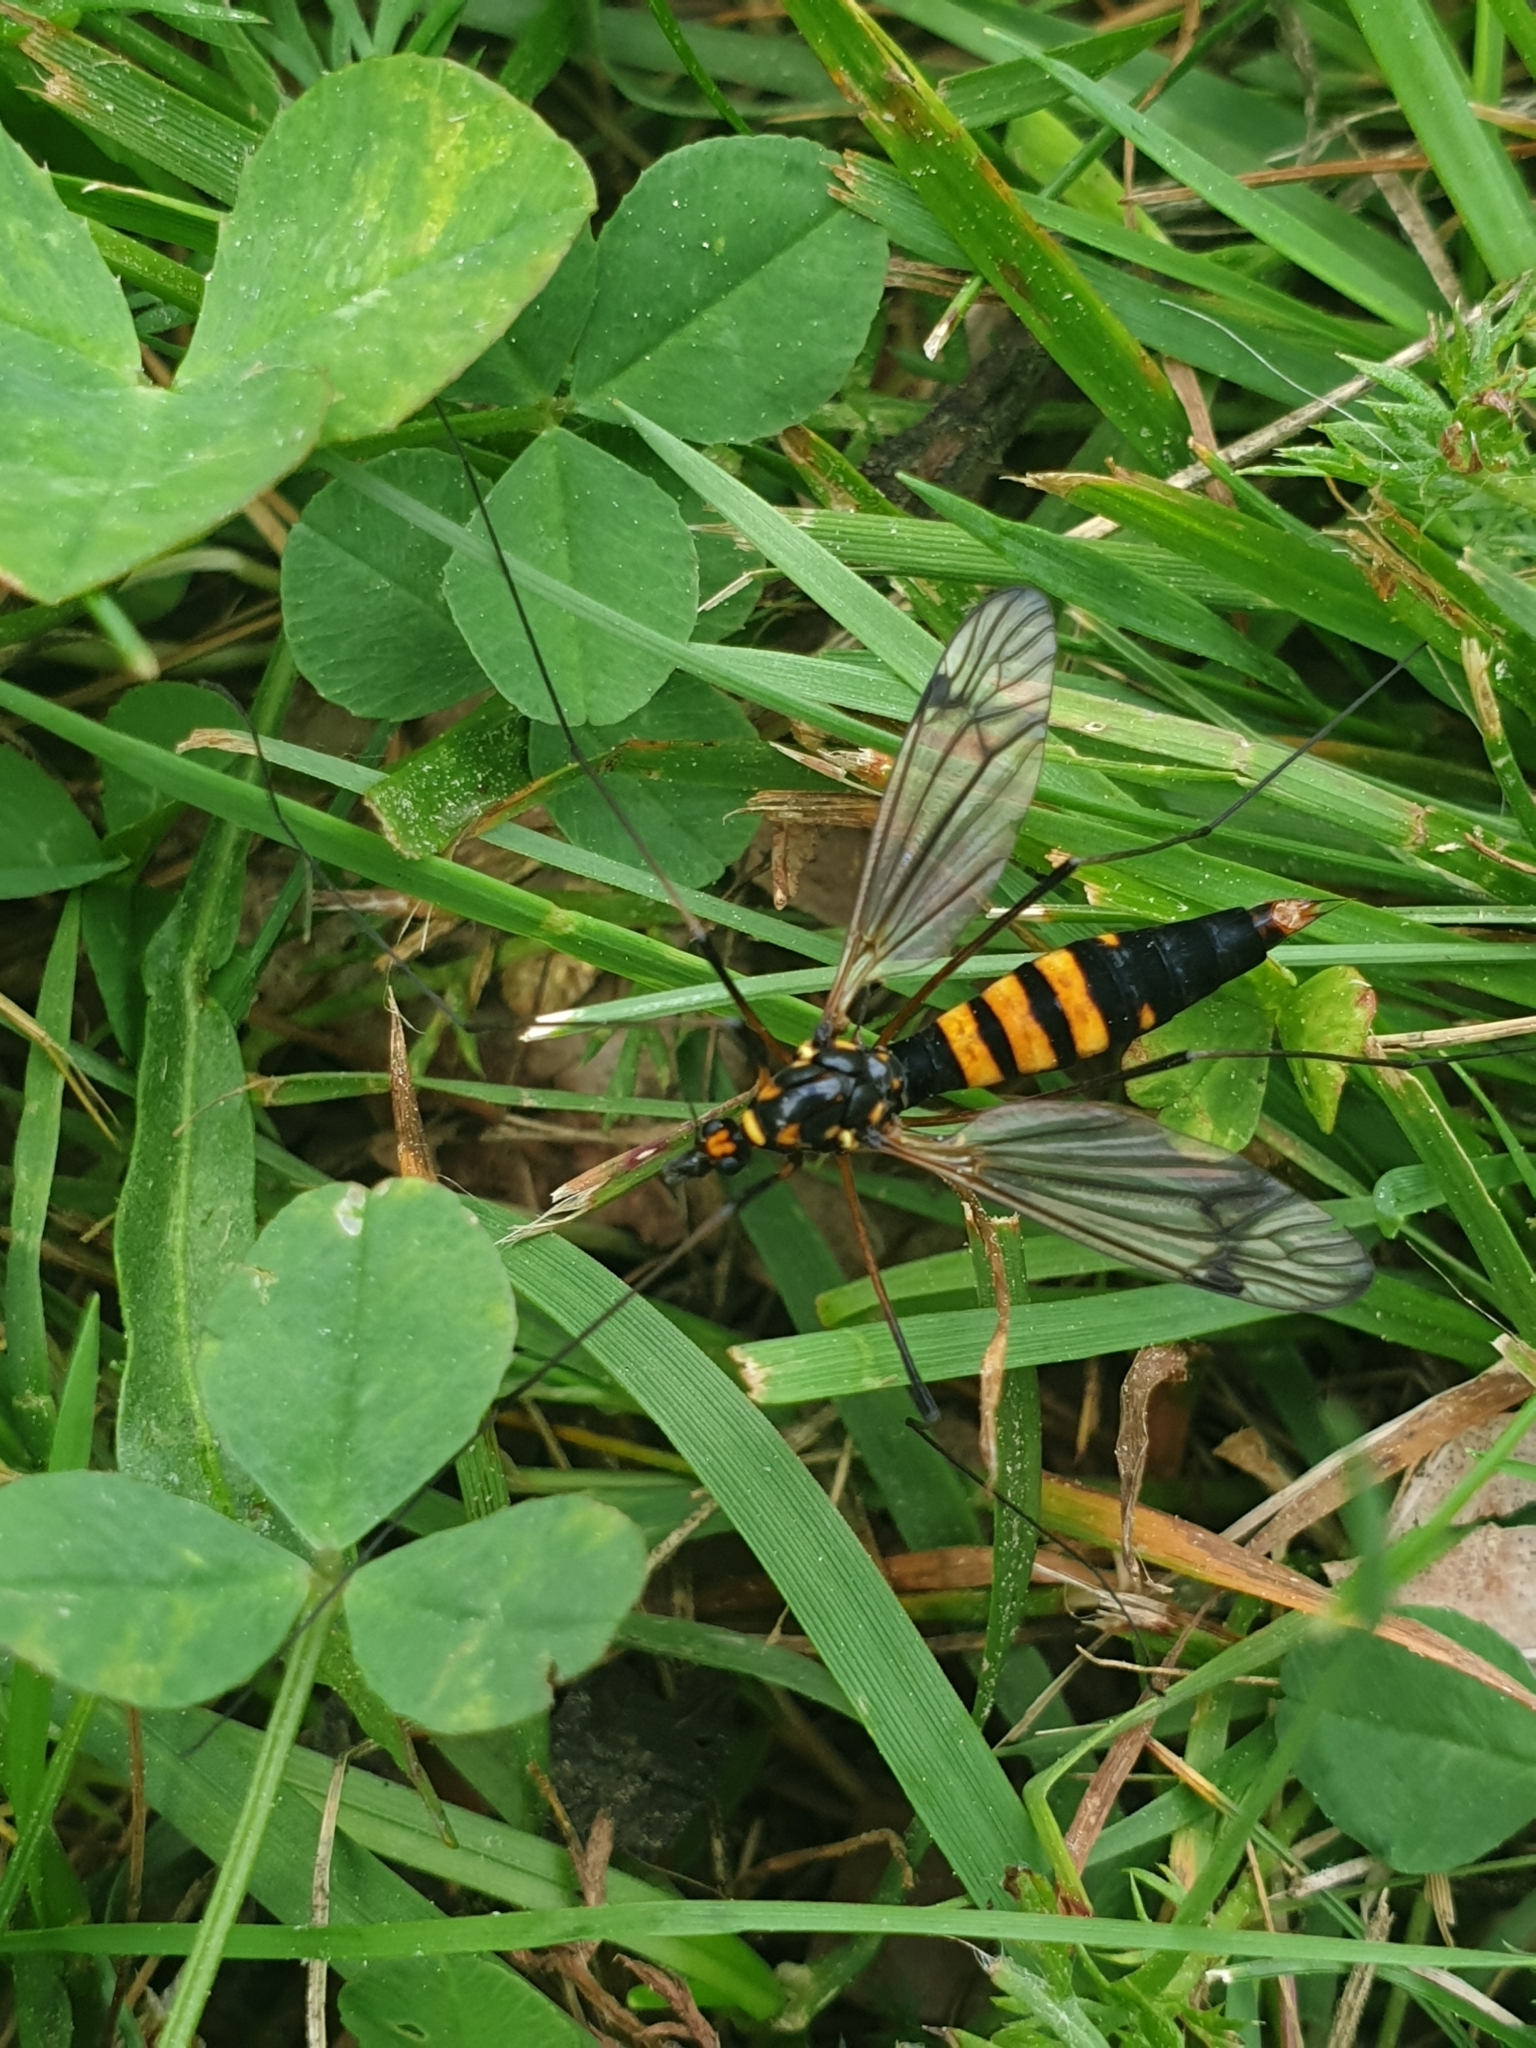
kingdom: Animalia
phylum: Arthropoda
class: Insecta
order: Diptera
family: Tipulidae
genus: Nephrotoma
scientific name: Nephrotoma crocata
